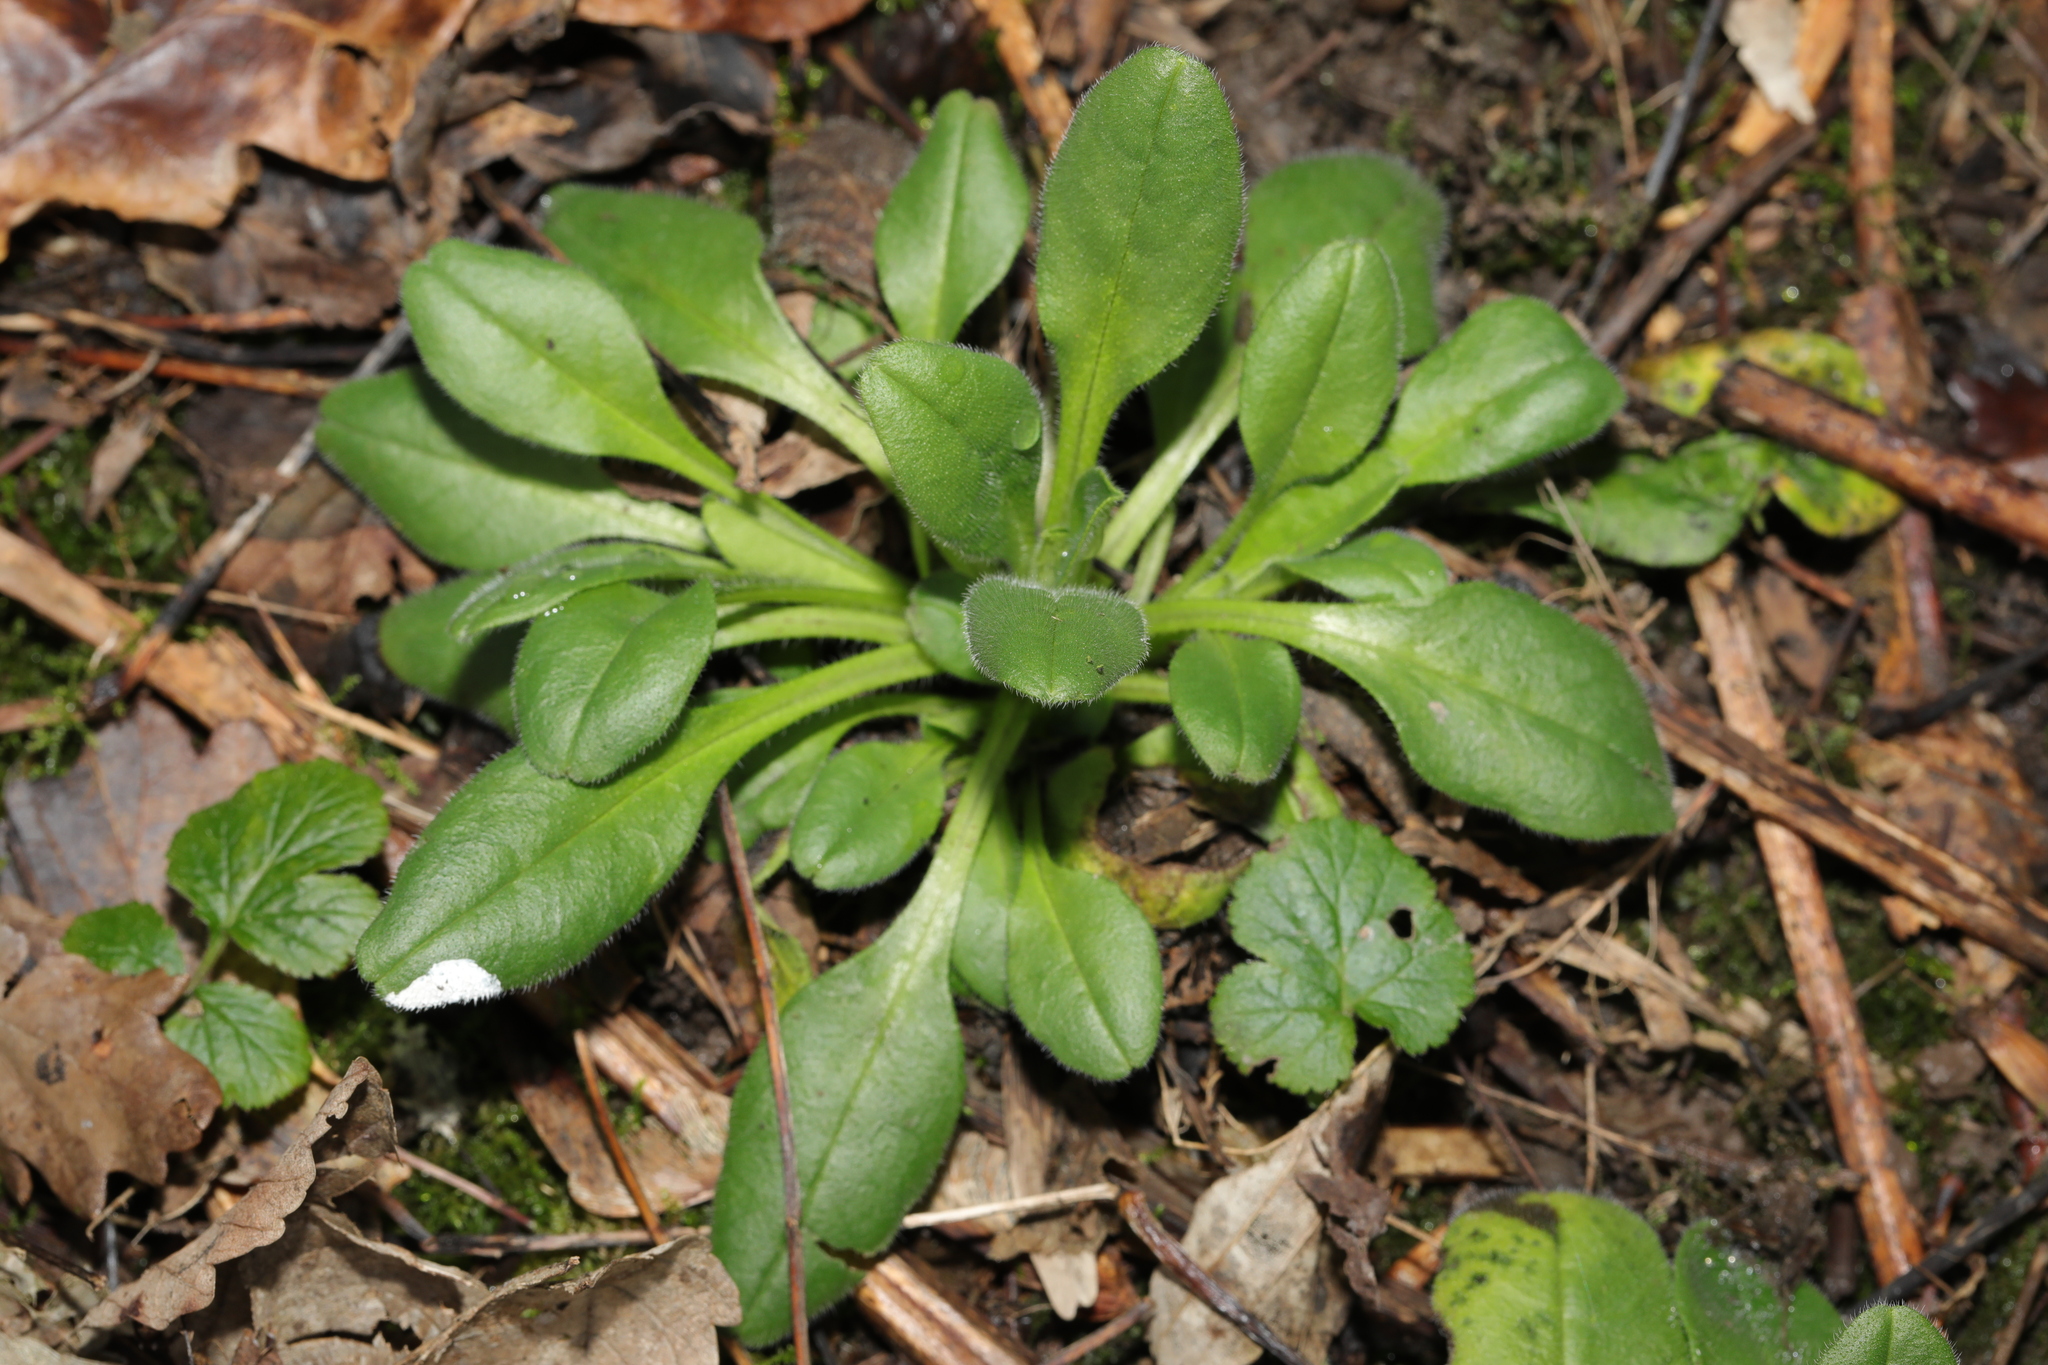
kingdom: Plantae
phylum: Tracheophyta
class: Magnoliopsida
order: Caryophyllales
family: Caryophyllaceae
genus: Silene
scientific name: Silene dioica
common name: Red campion
